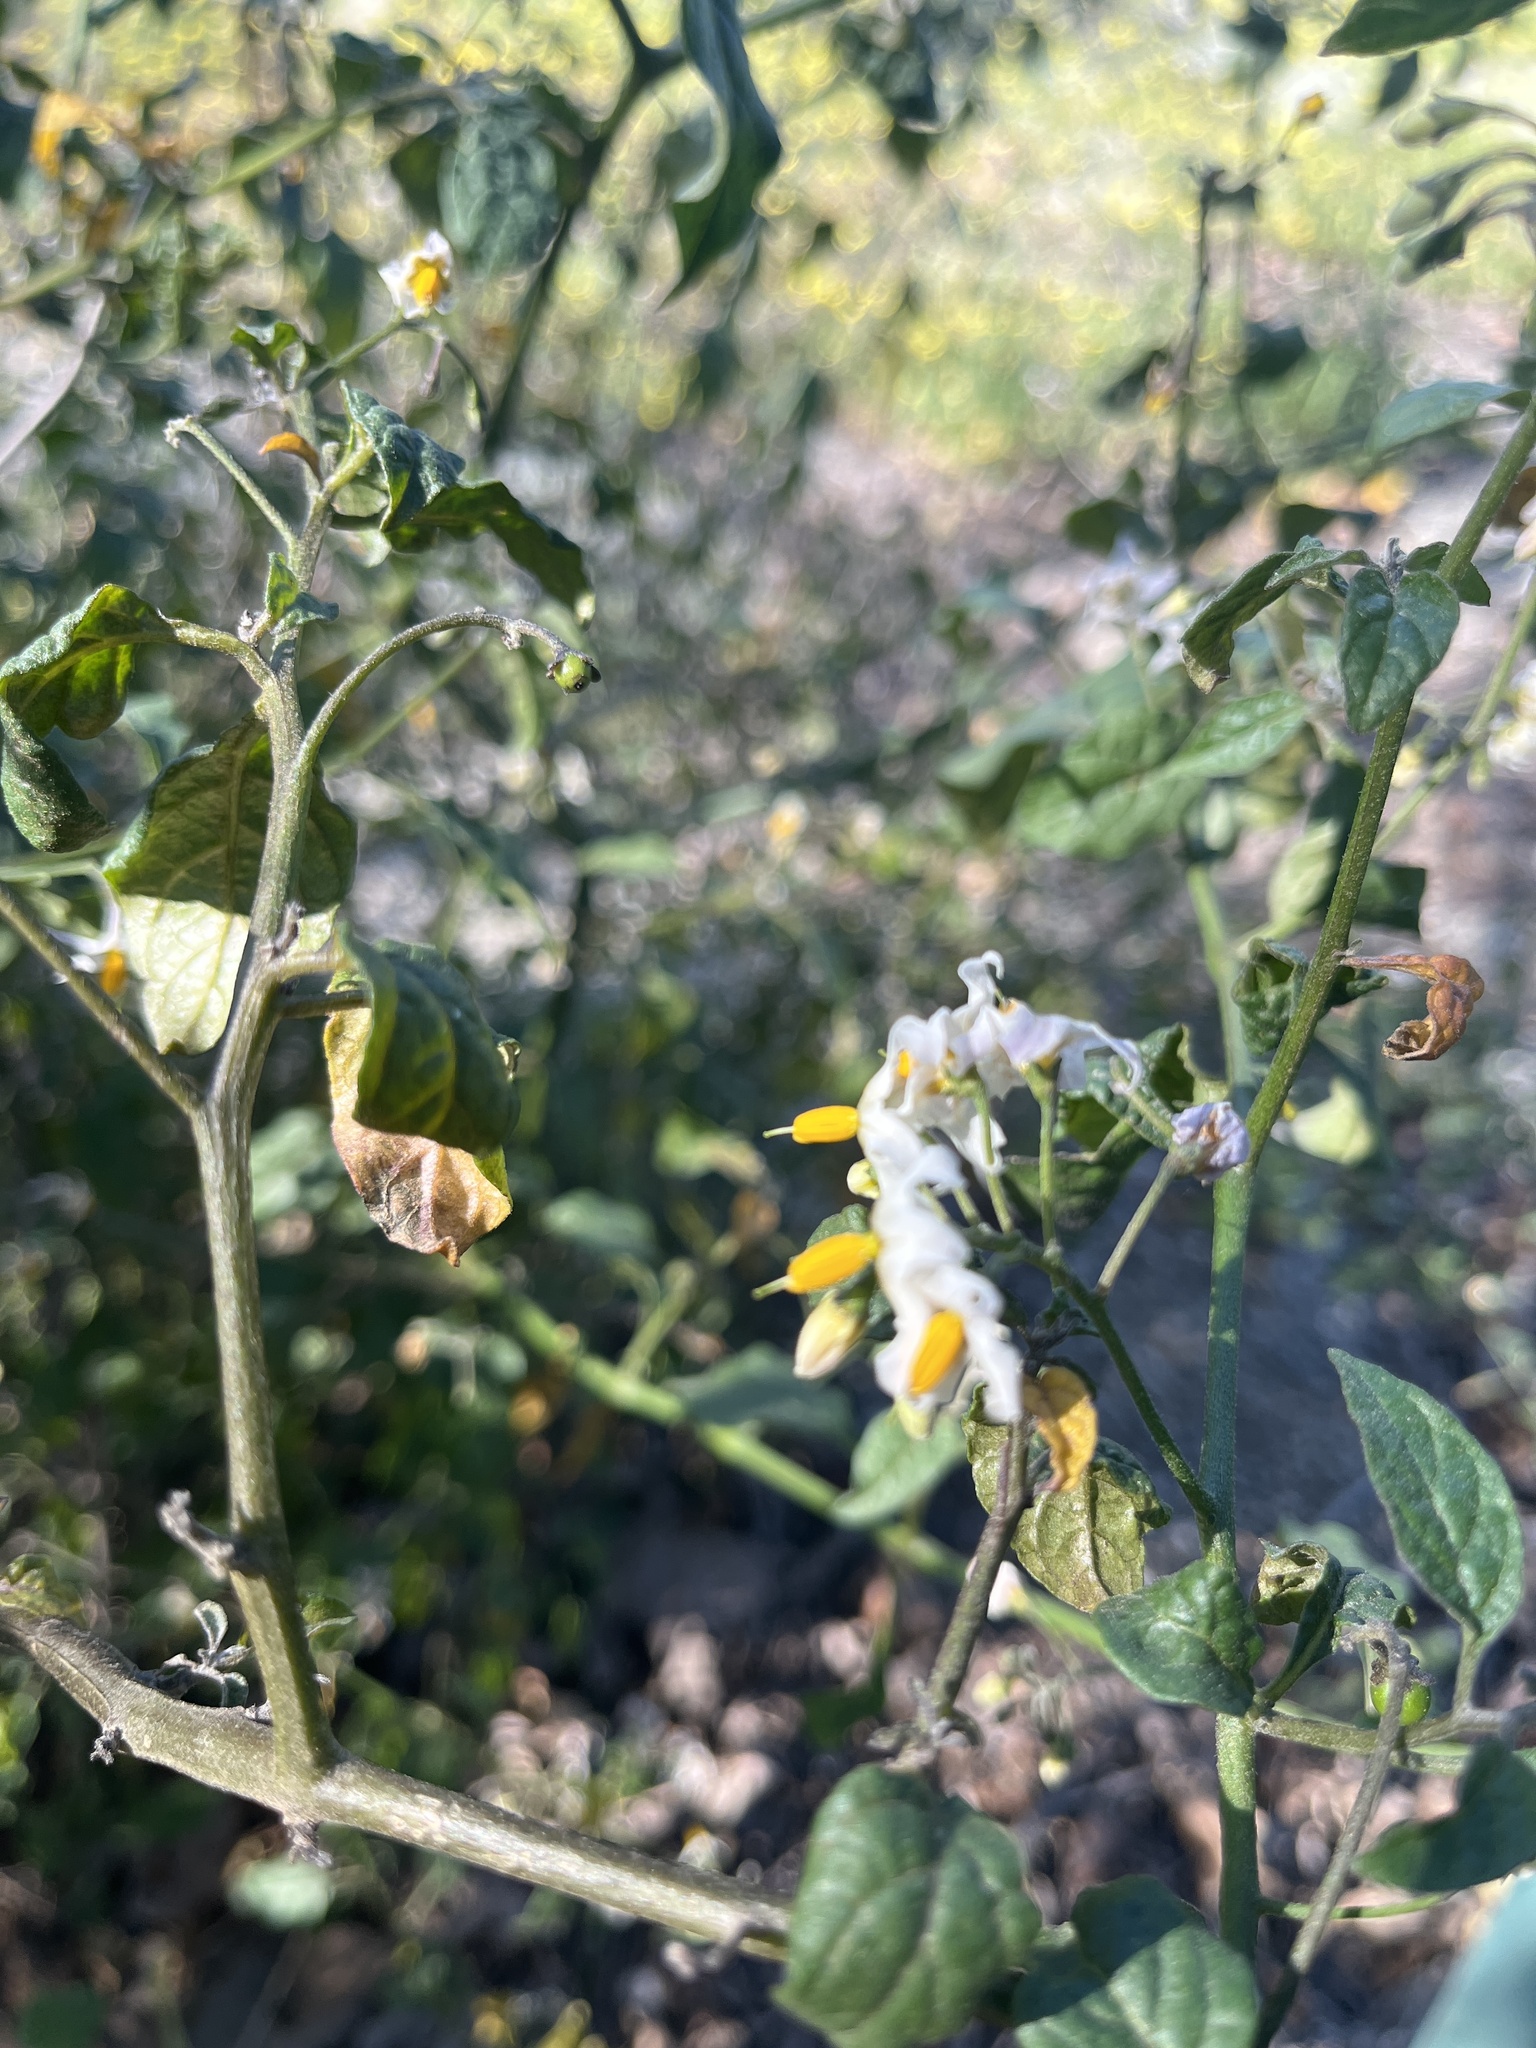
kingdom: Plantae
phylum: Tracheophyta
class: Magnoliopsida
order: Solanales
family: Solanaceae
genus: Solanum
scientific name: Solanum douglasii
